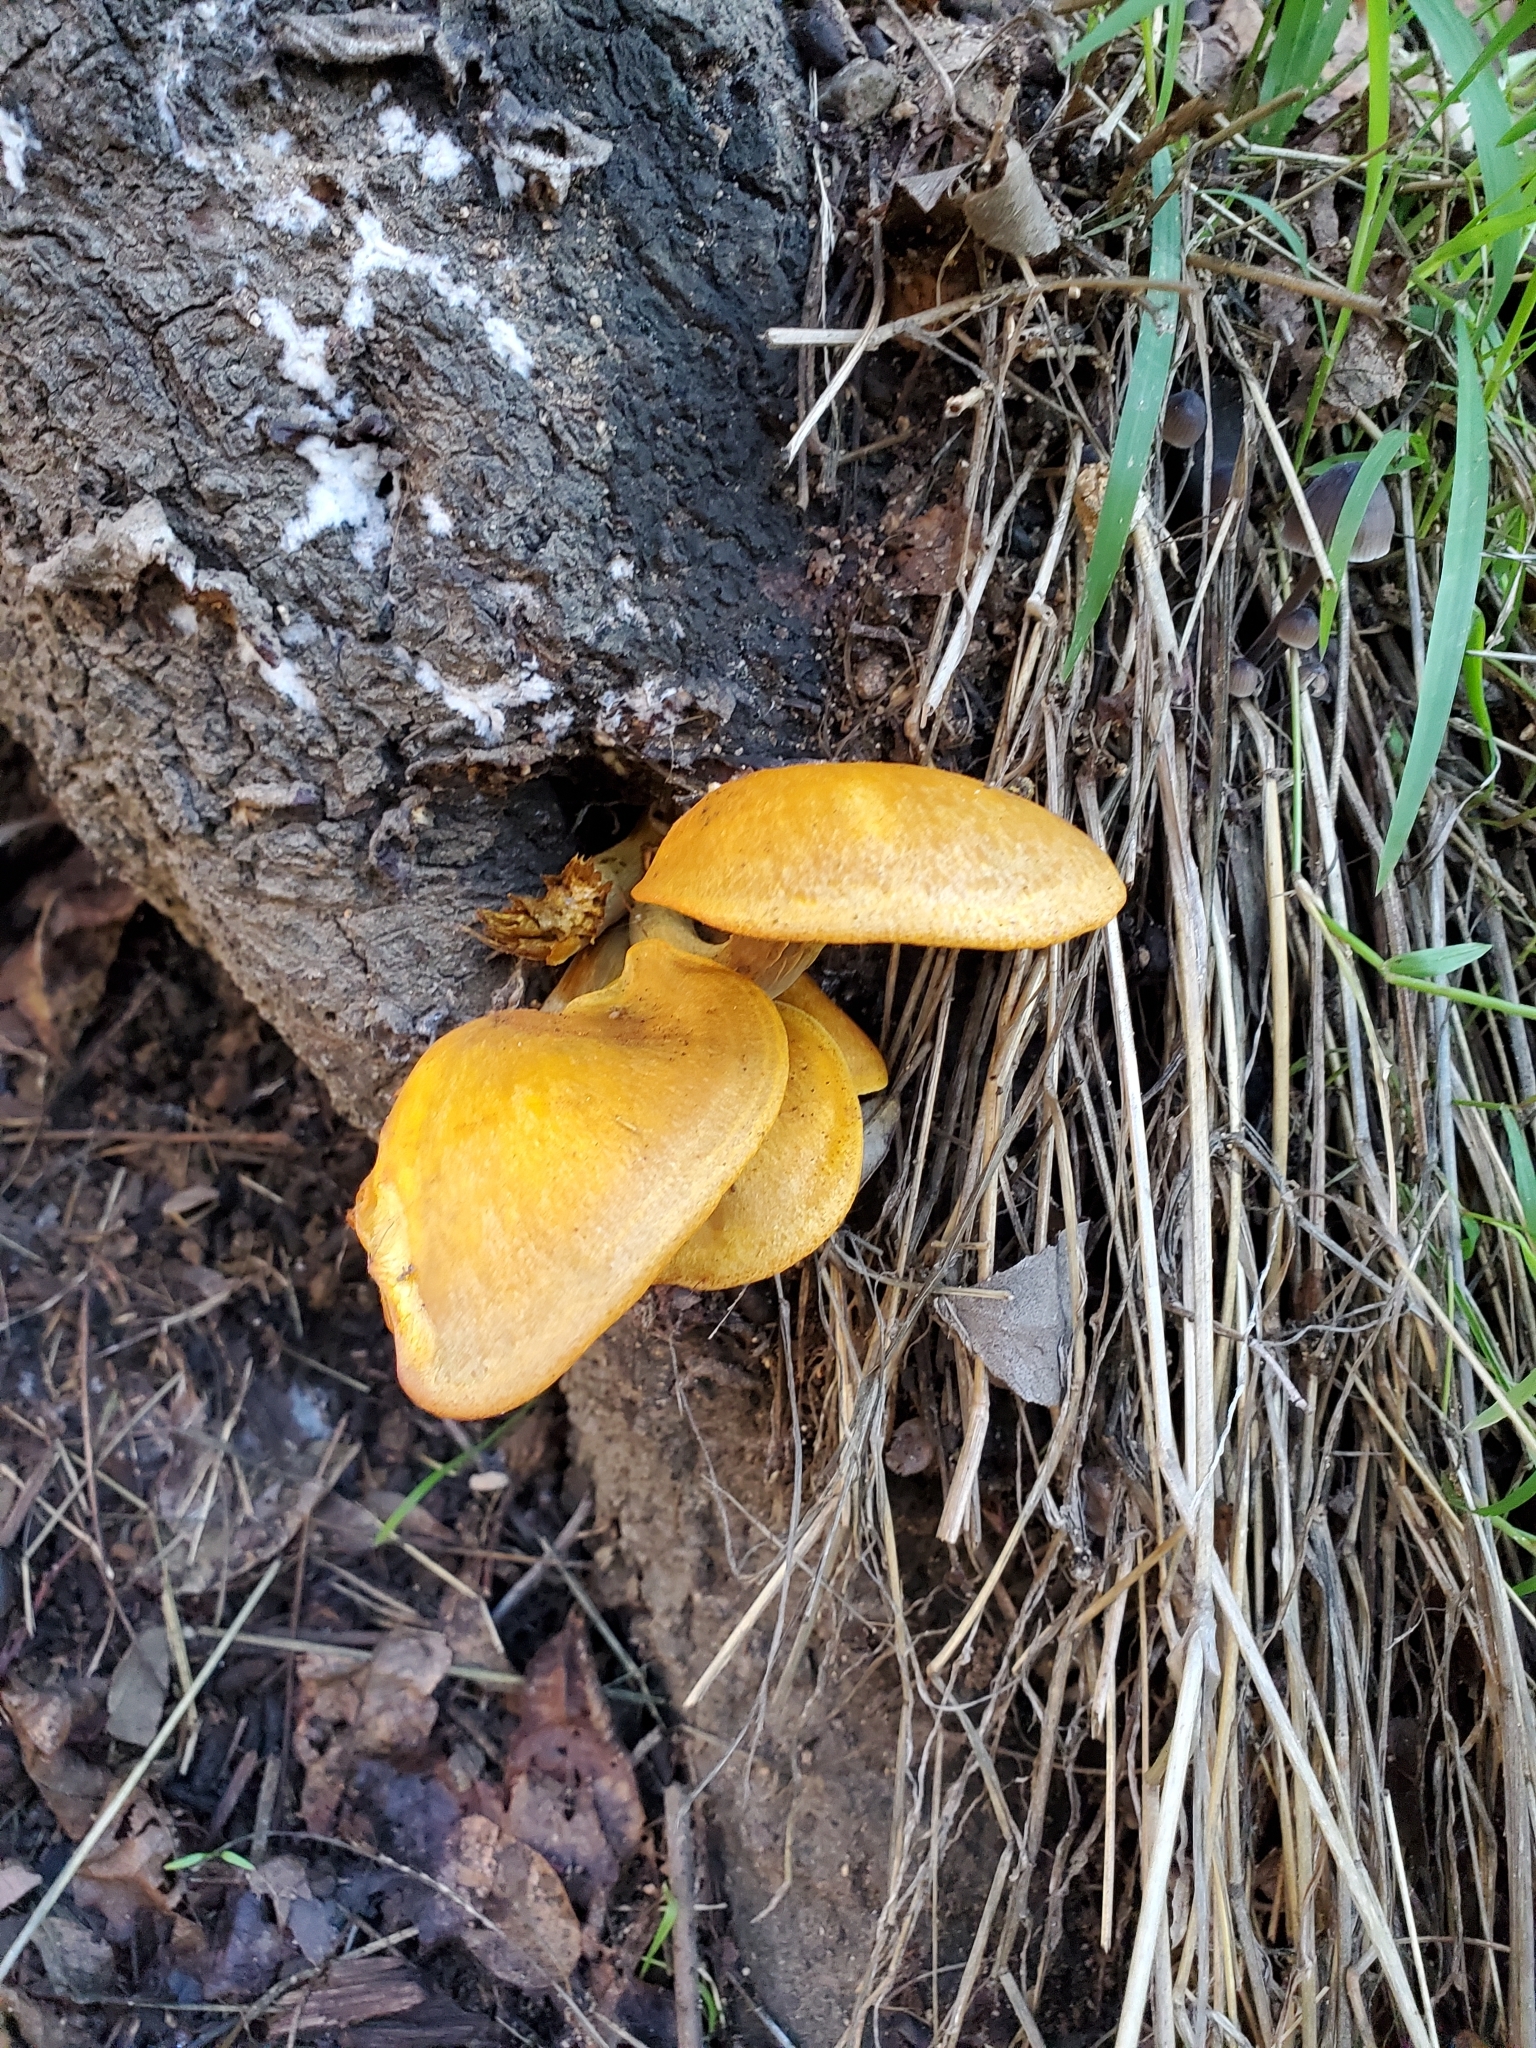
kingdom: Fungi
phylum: Basidiomycota
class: Agaricomycetes
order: Agaricales
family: Omphalotaceae
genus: Omphalotus
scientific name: Omphalotus olivascens
